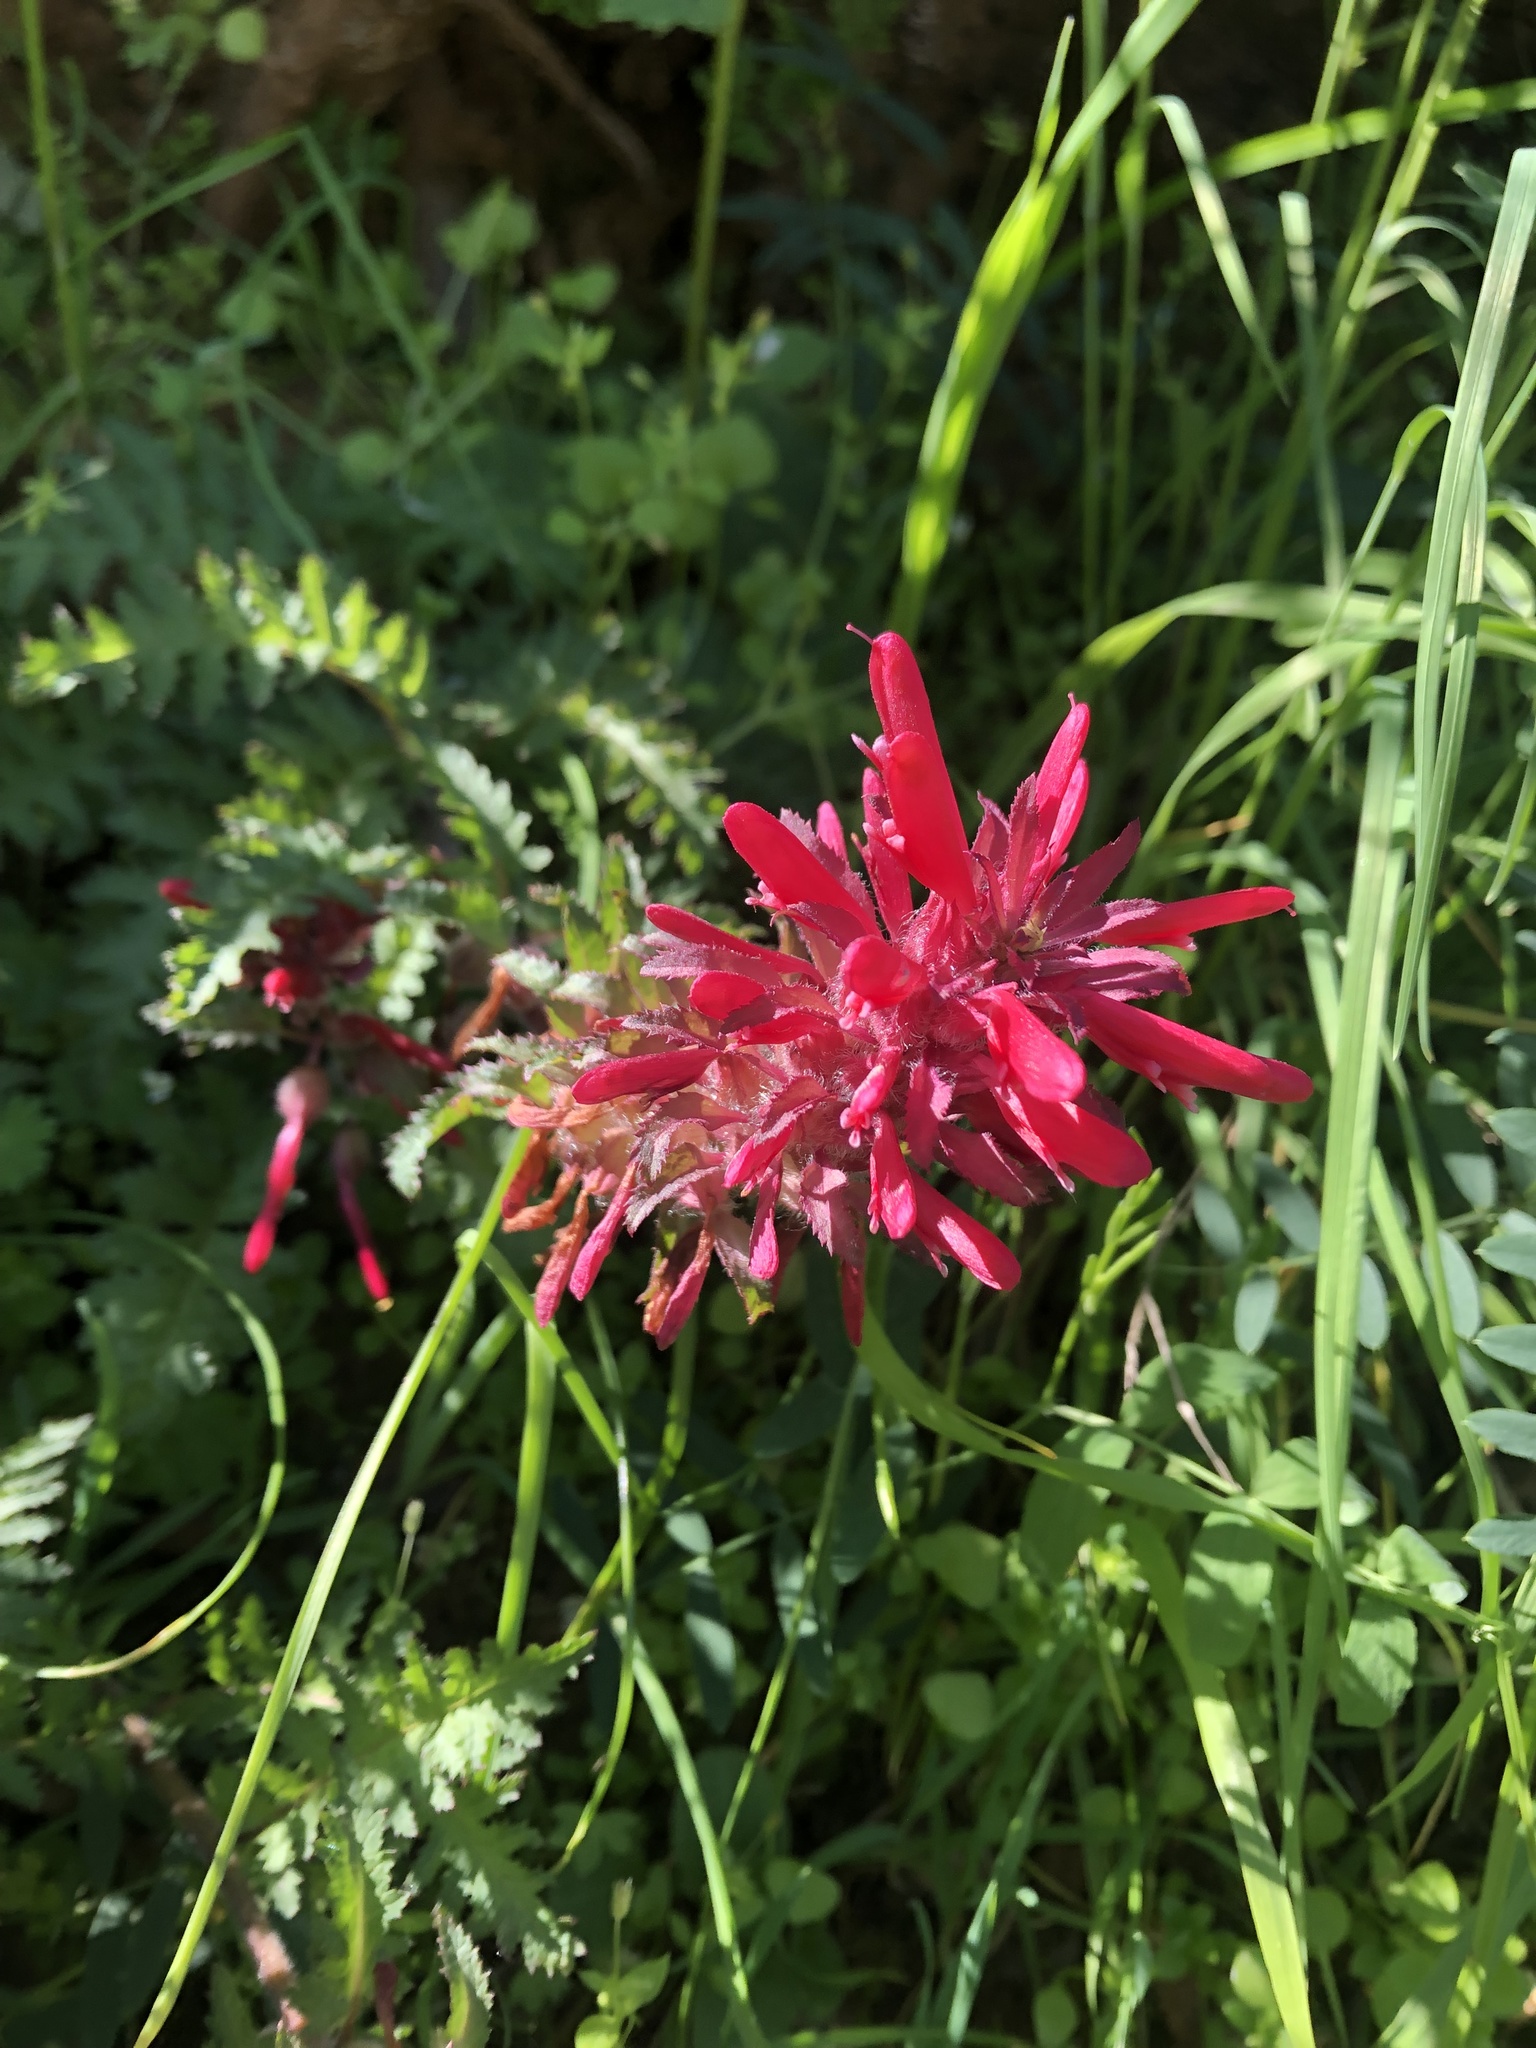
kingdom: Plantae
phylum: Tracheophyta
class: Magnoliopsida
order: Lamiales
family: Orobanchaceae
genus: Pedicularis
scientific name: Pedicularis densiflora
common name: Indian warrior
